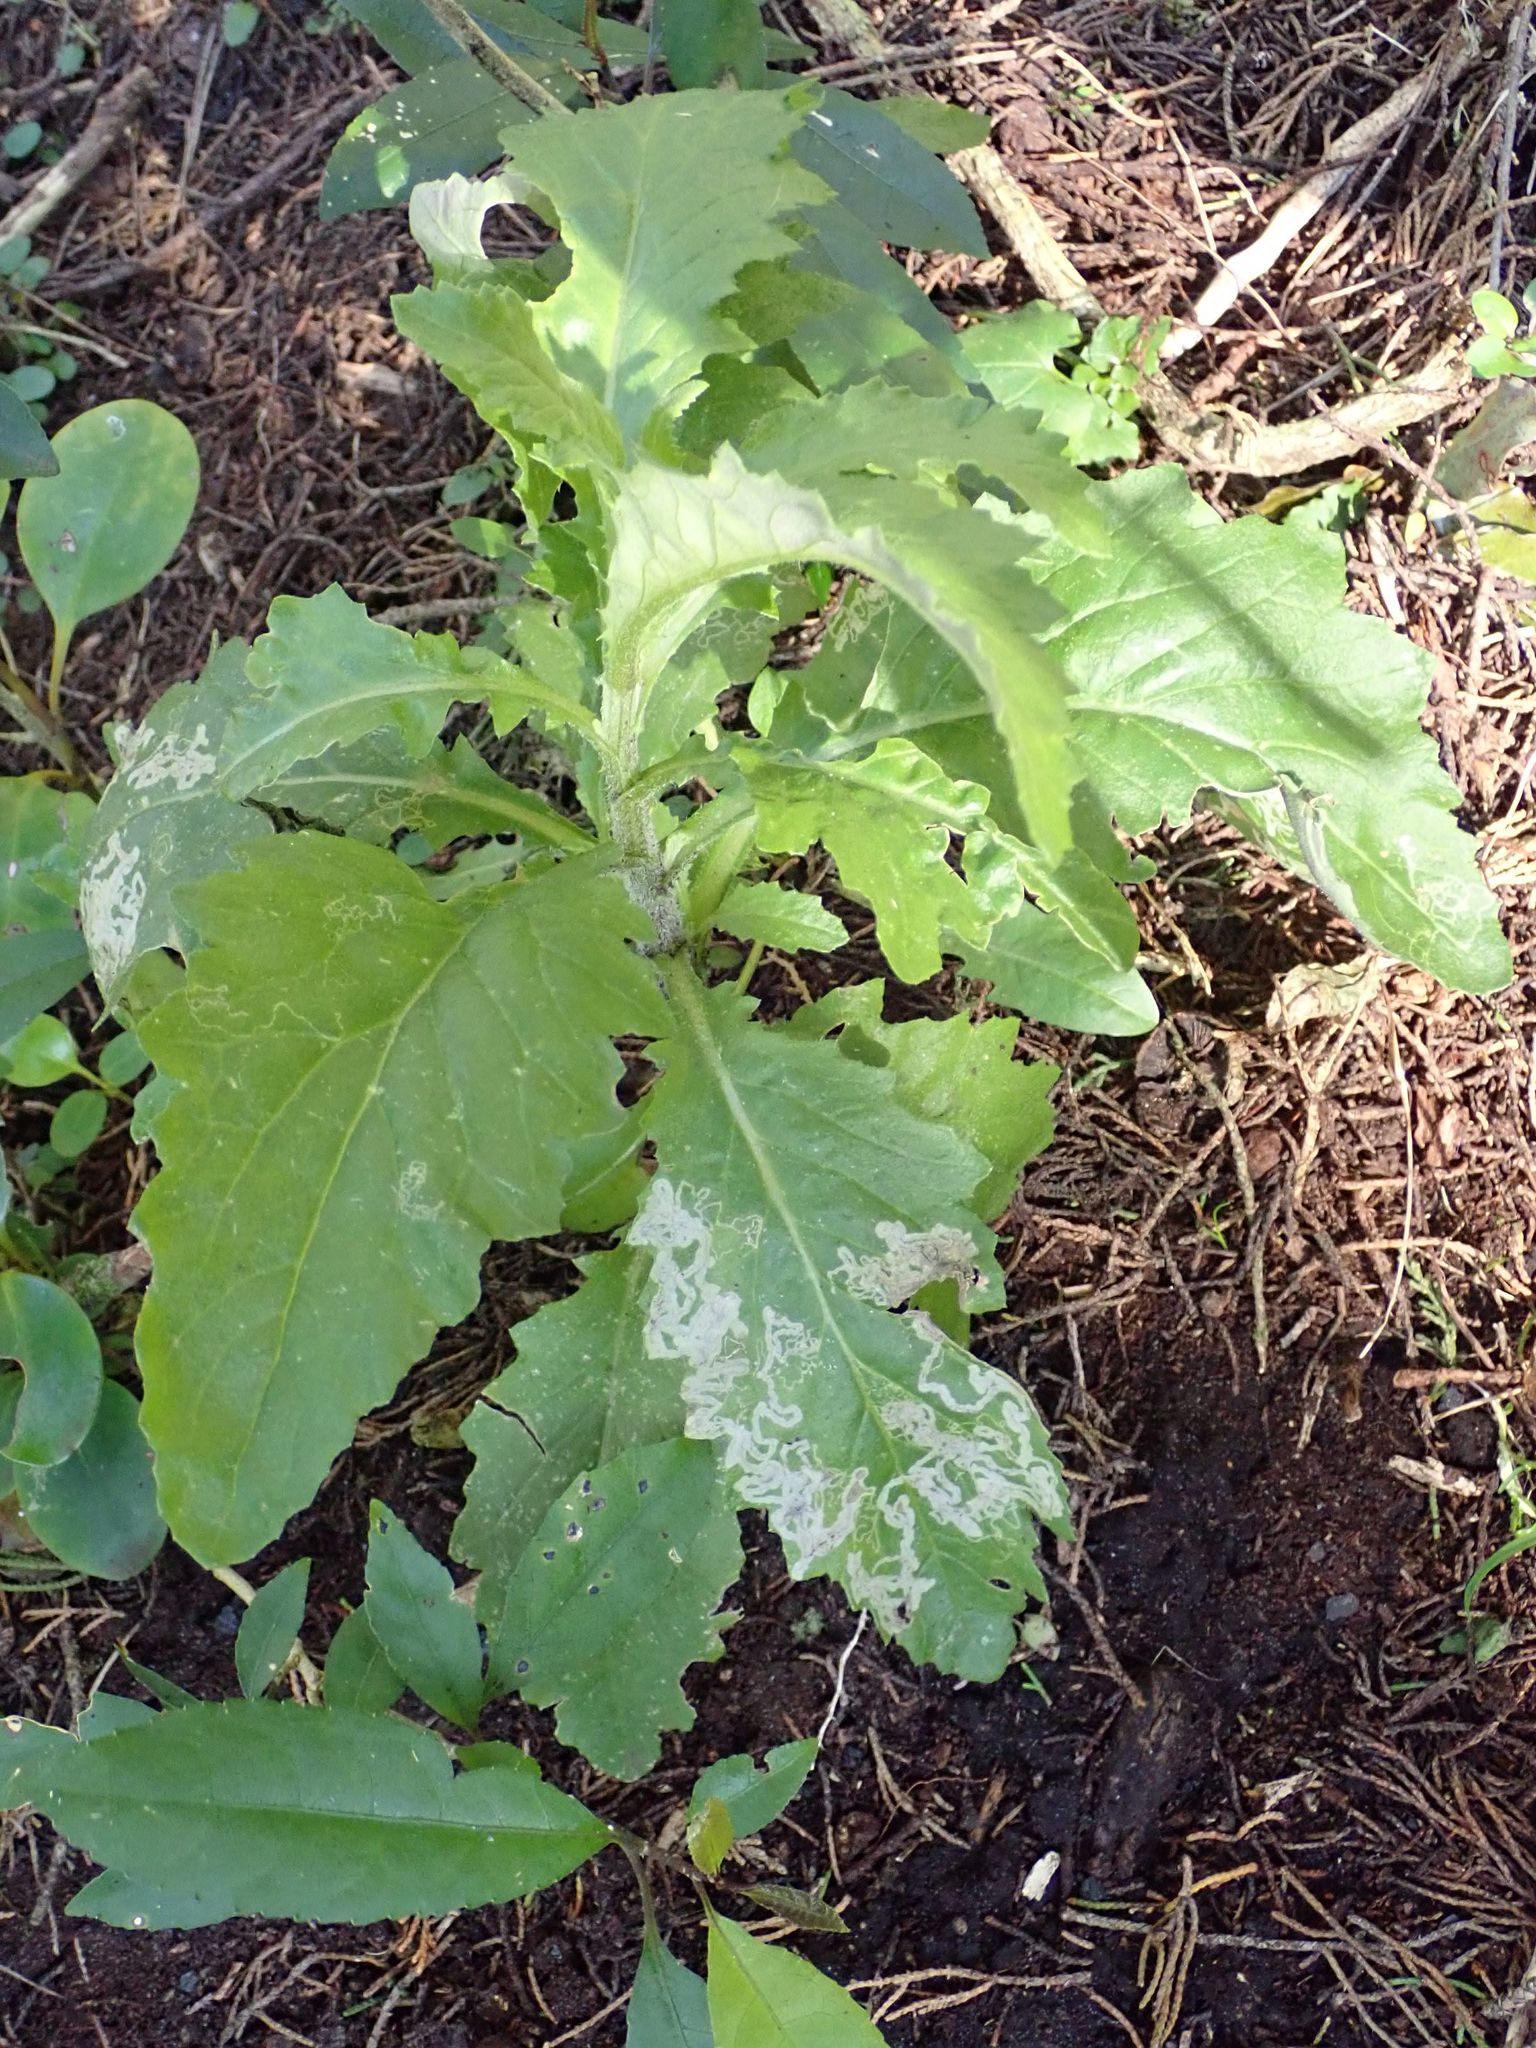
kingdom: Plantae
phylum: Tracheophyta
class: Magnoliopsida
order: Asterales
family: Asteraceae
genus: Senecio
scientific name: Senecio glomeratus
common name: Cutleaf burnweed
